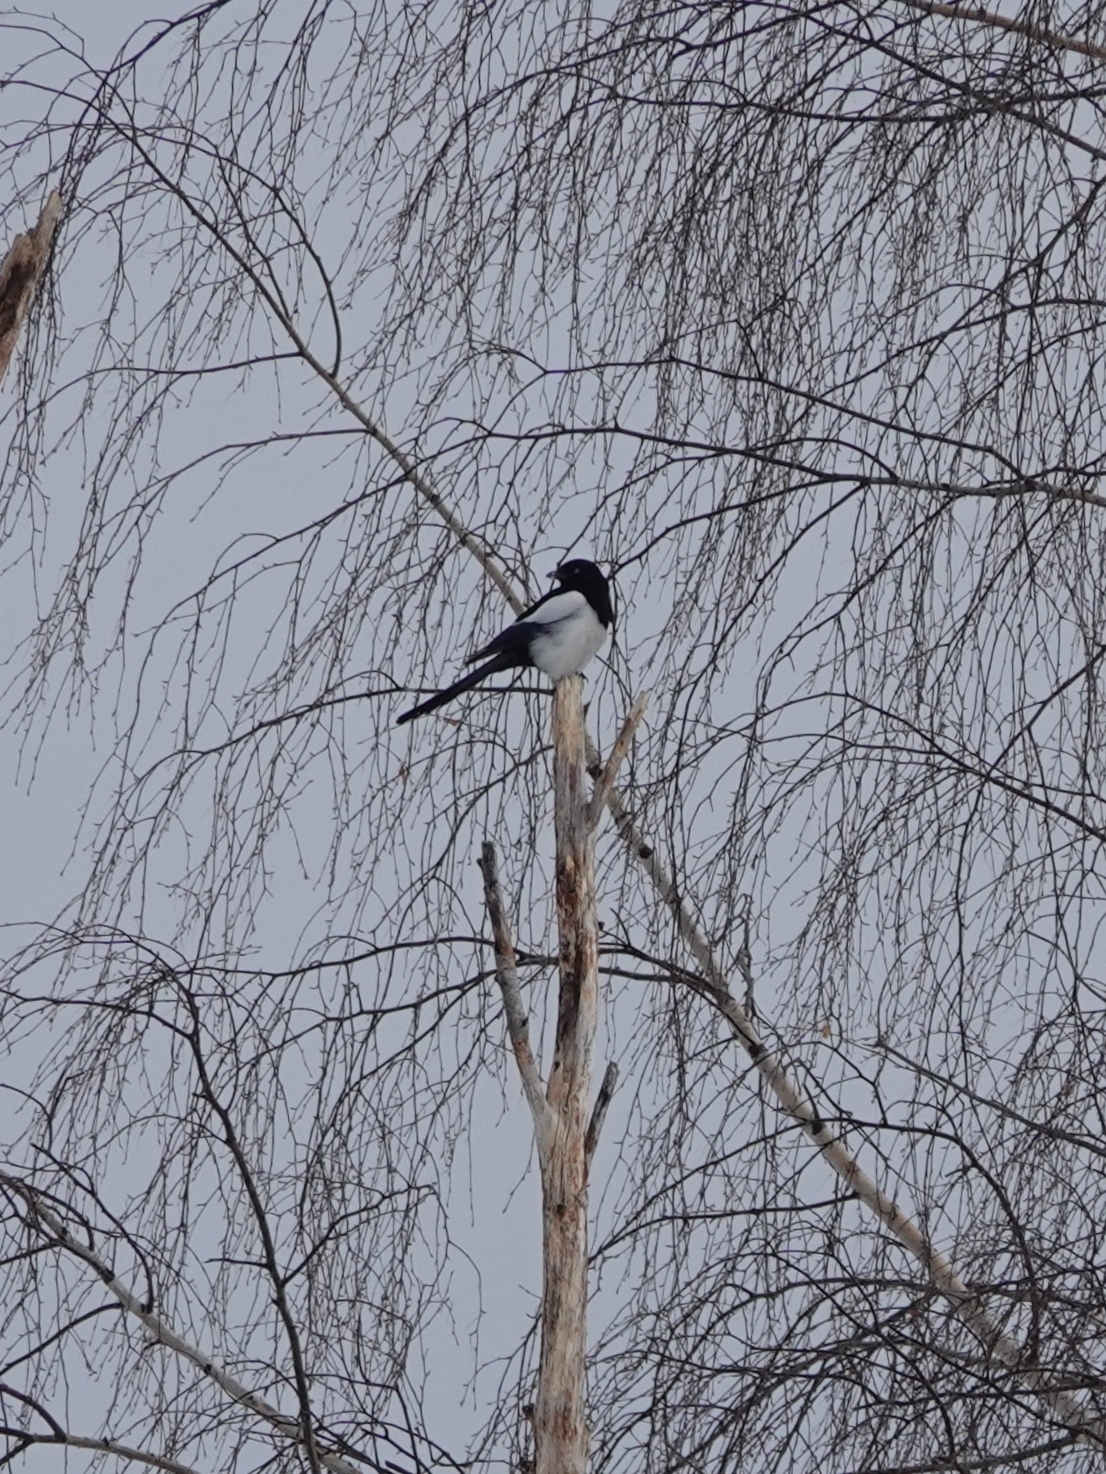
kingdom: Animalia
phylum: Chordata
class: Aves
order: Passeriformes
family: Corvidae
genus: Pica
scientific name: Pica pica
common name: Eurasian magpie
